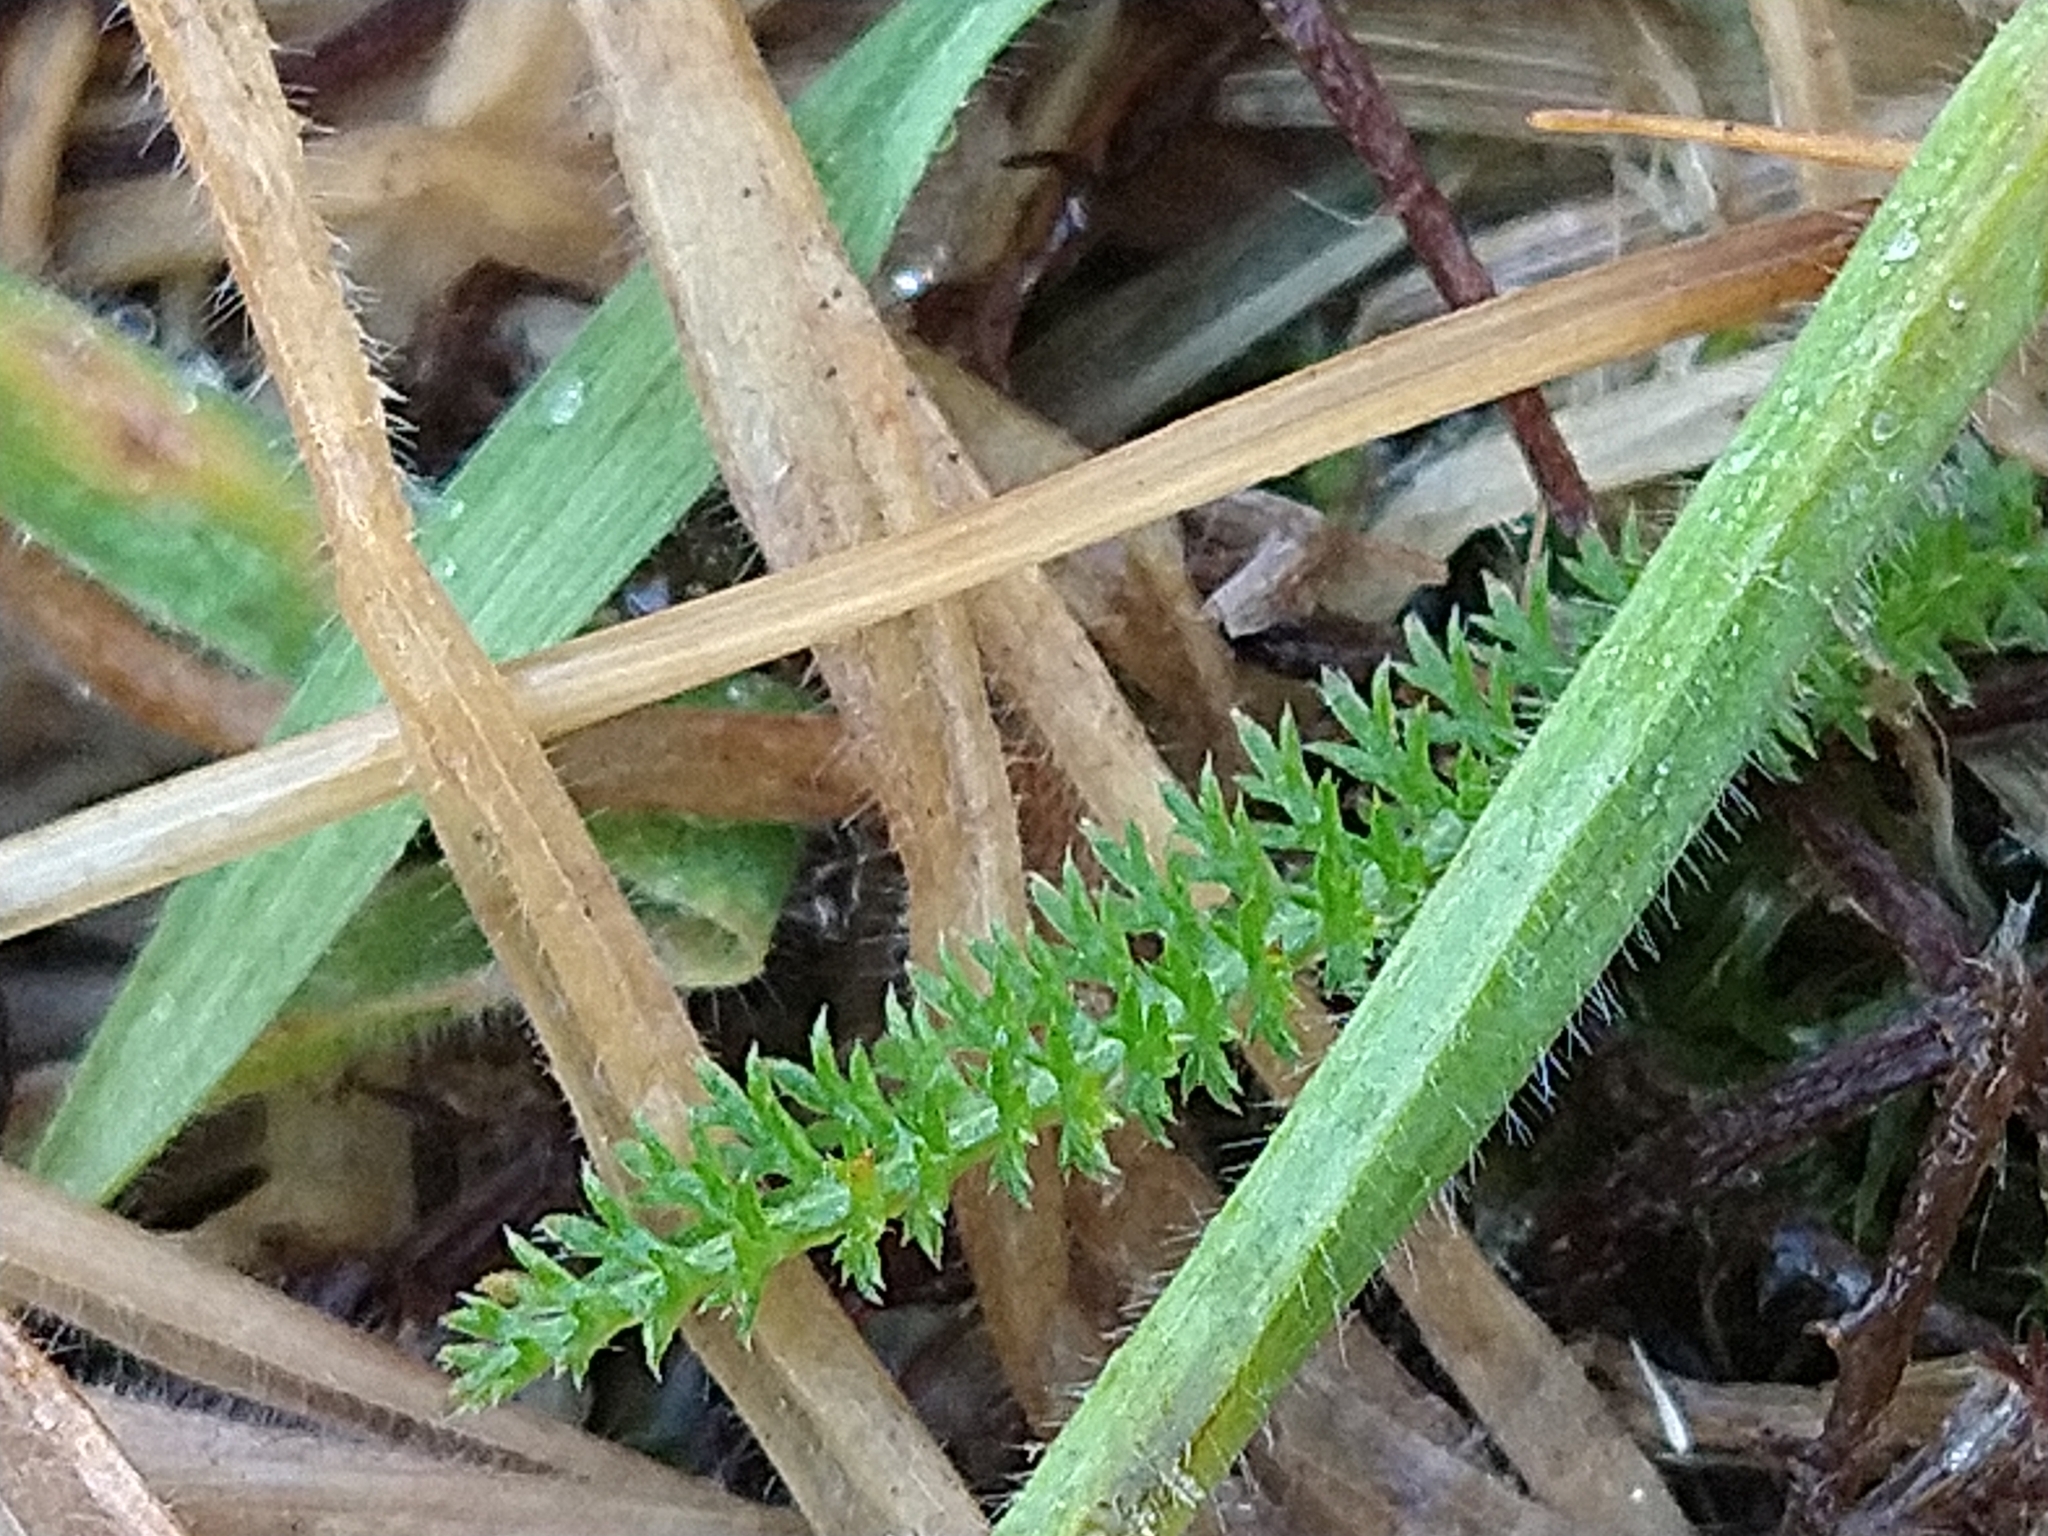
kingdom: Plantae
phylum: Tracheophyta
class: Magnoliopsida
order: Asterales
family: Asteraceae
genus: Achillea
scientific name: Achillea millefolium
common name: Yarrow
